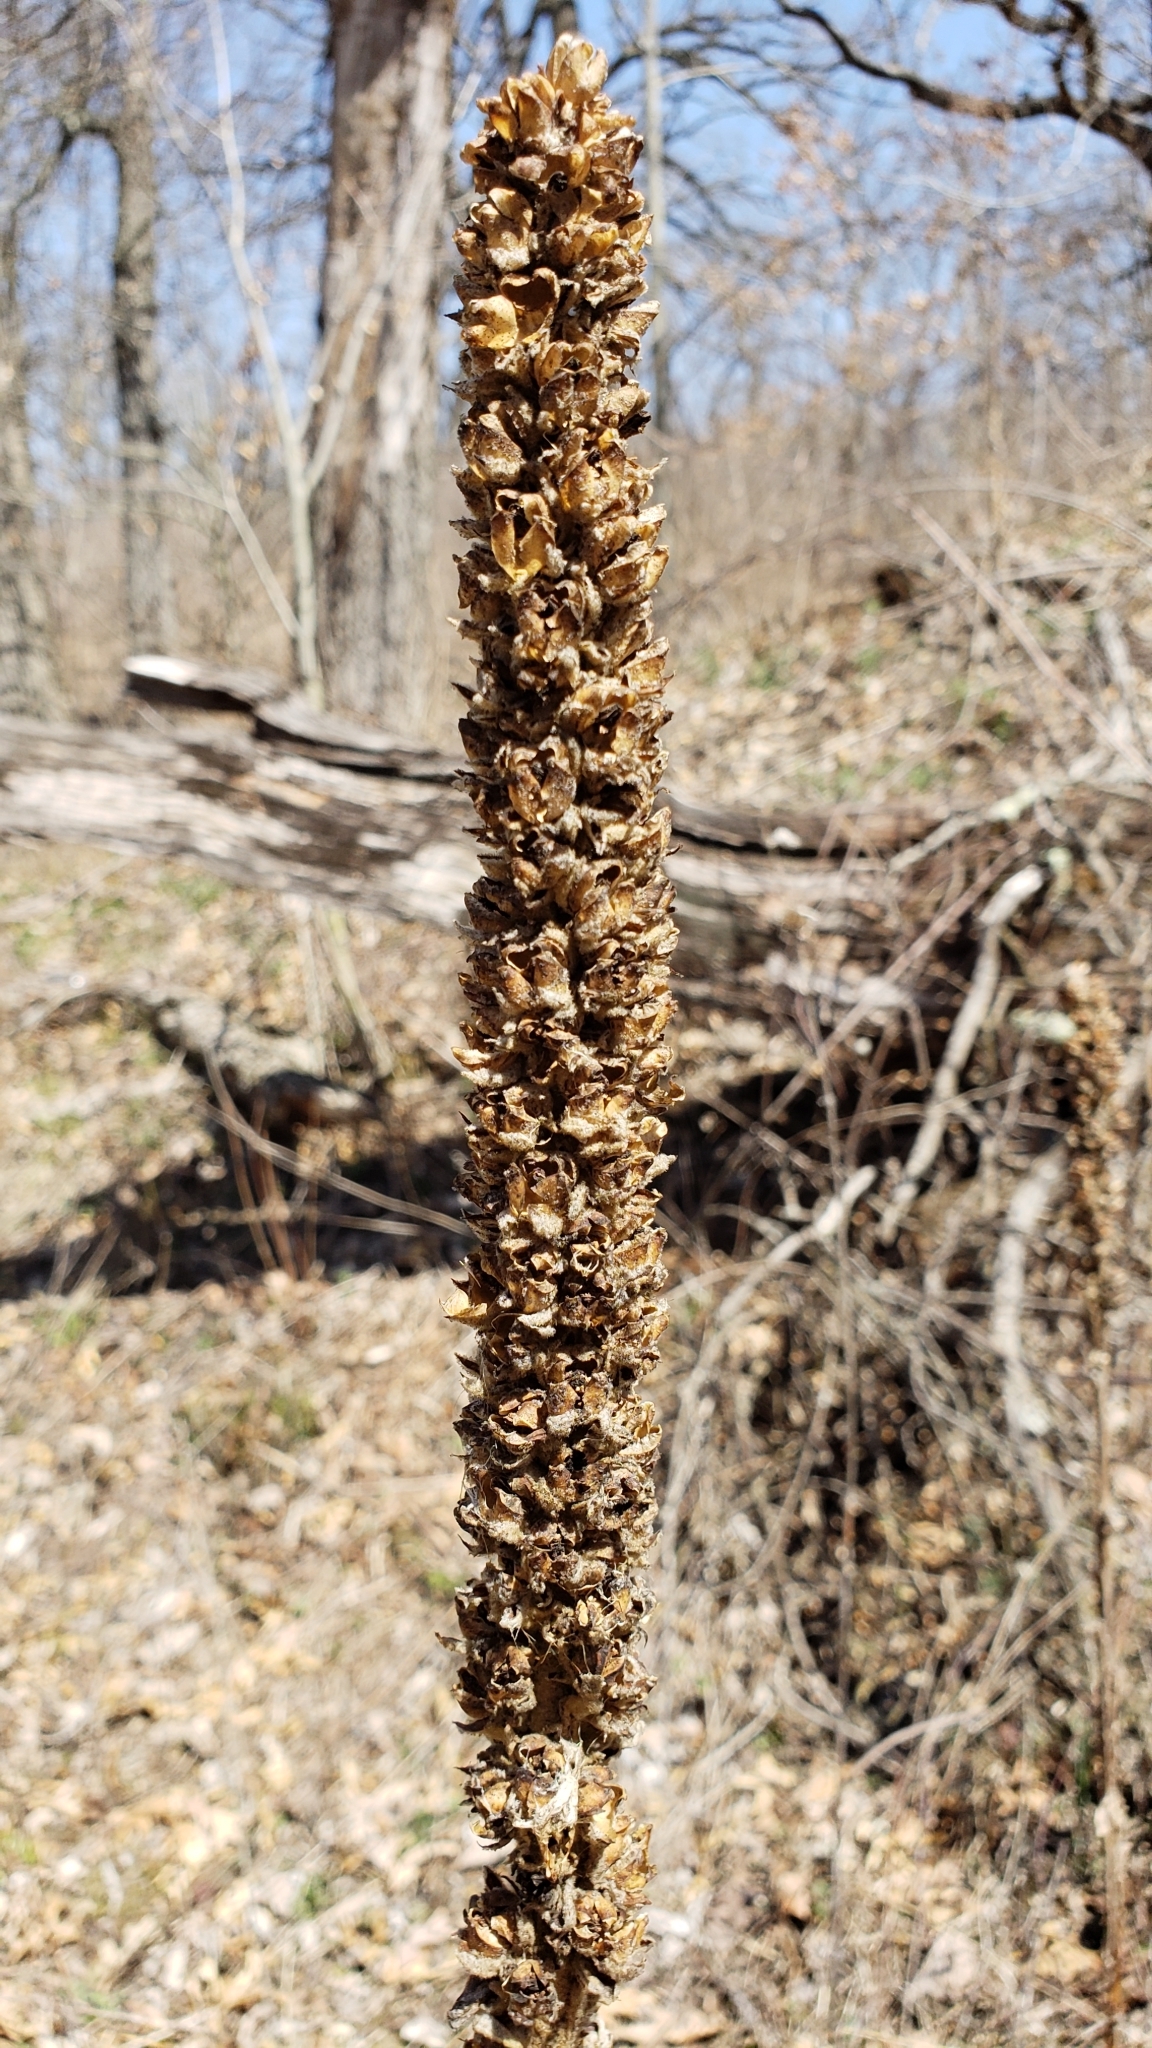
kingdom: Plantae
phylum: Tracheophyta
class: Magnoliopsida
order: Lamiales
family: Scrophulariaceae
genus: Verbascum
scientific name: Verbascum thapsus
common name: Common mullein
